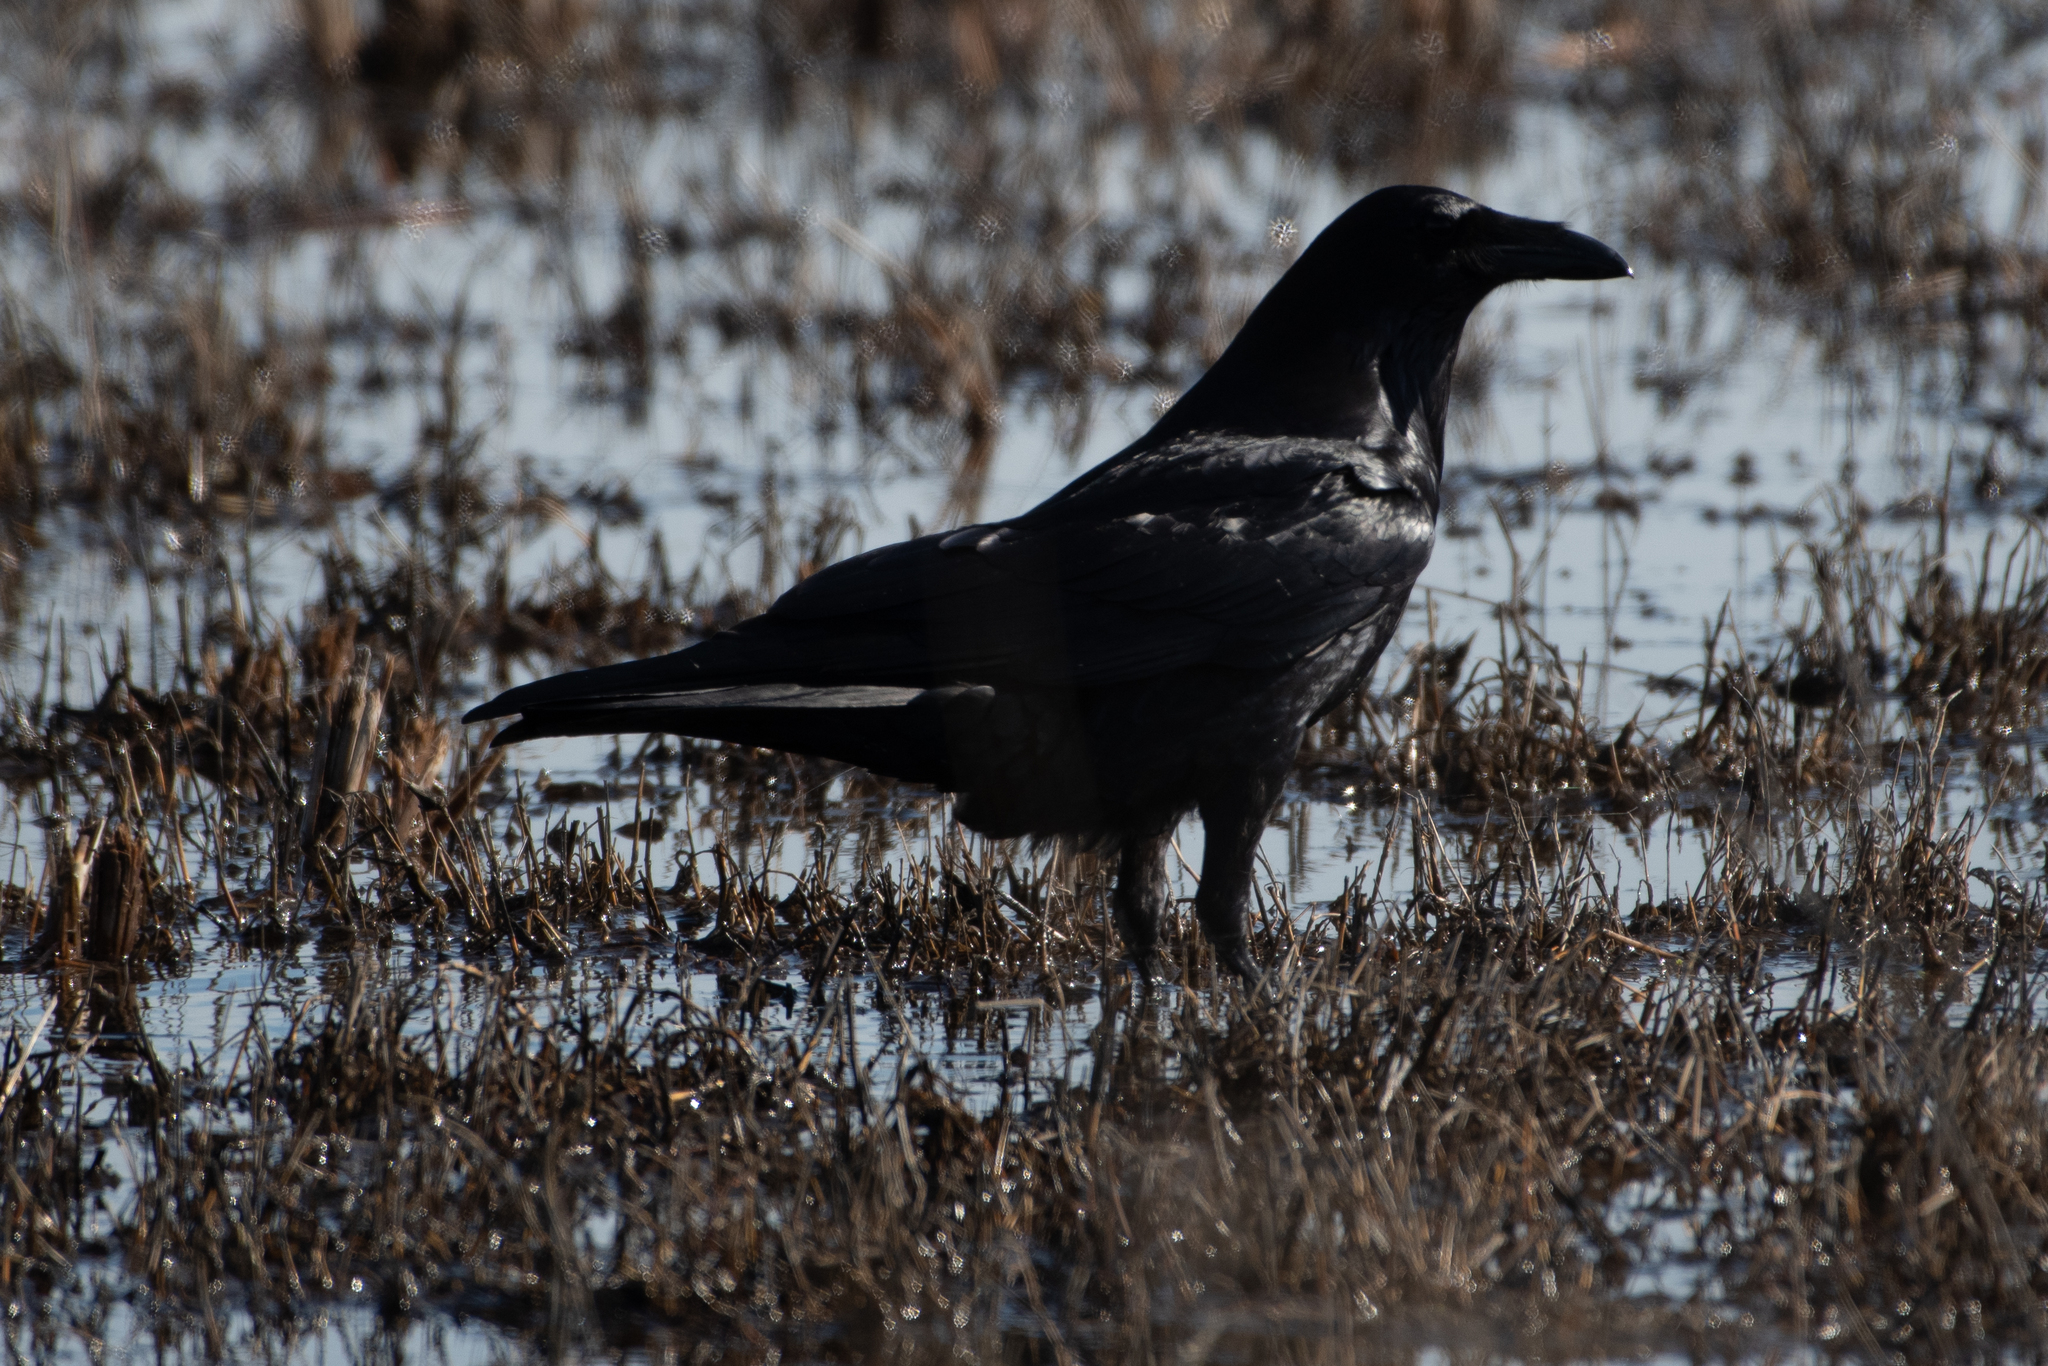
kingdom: Animalia
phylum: Chordata
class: Aves
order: Passeriformes
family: Corvidae
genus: Corvus
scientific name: Corvus corax
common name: Common raven
